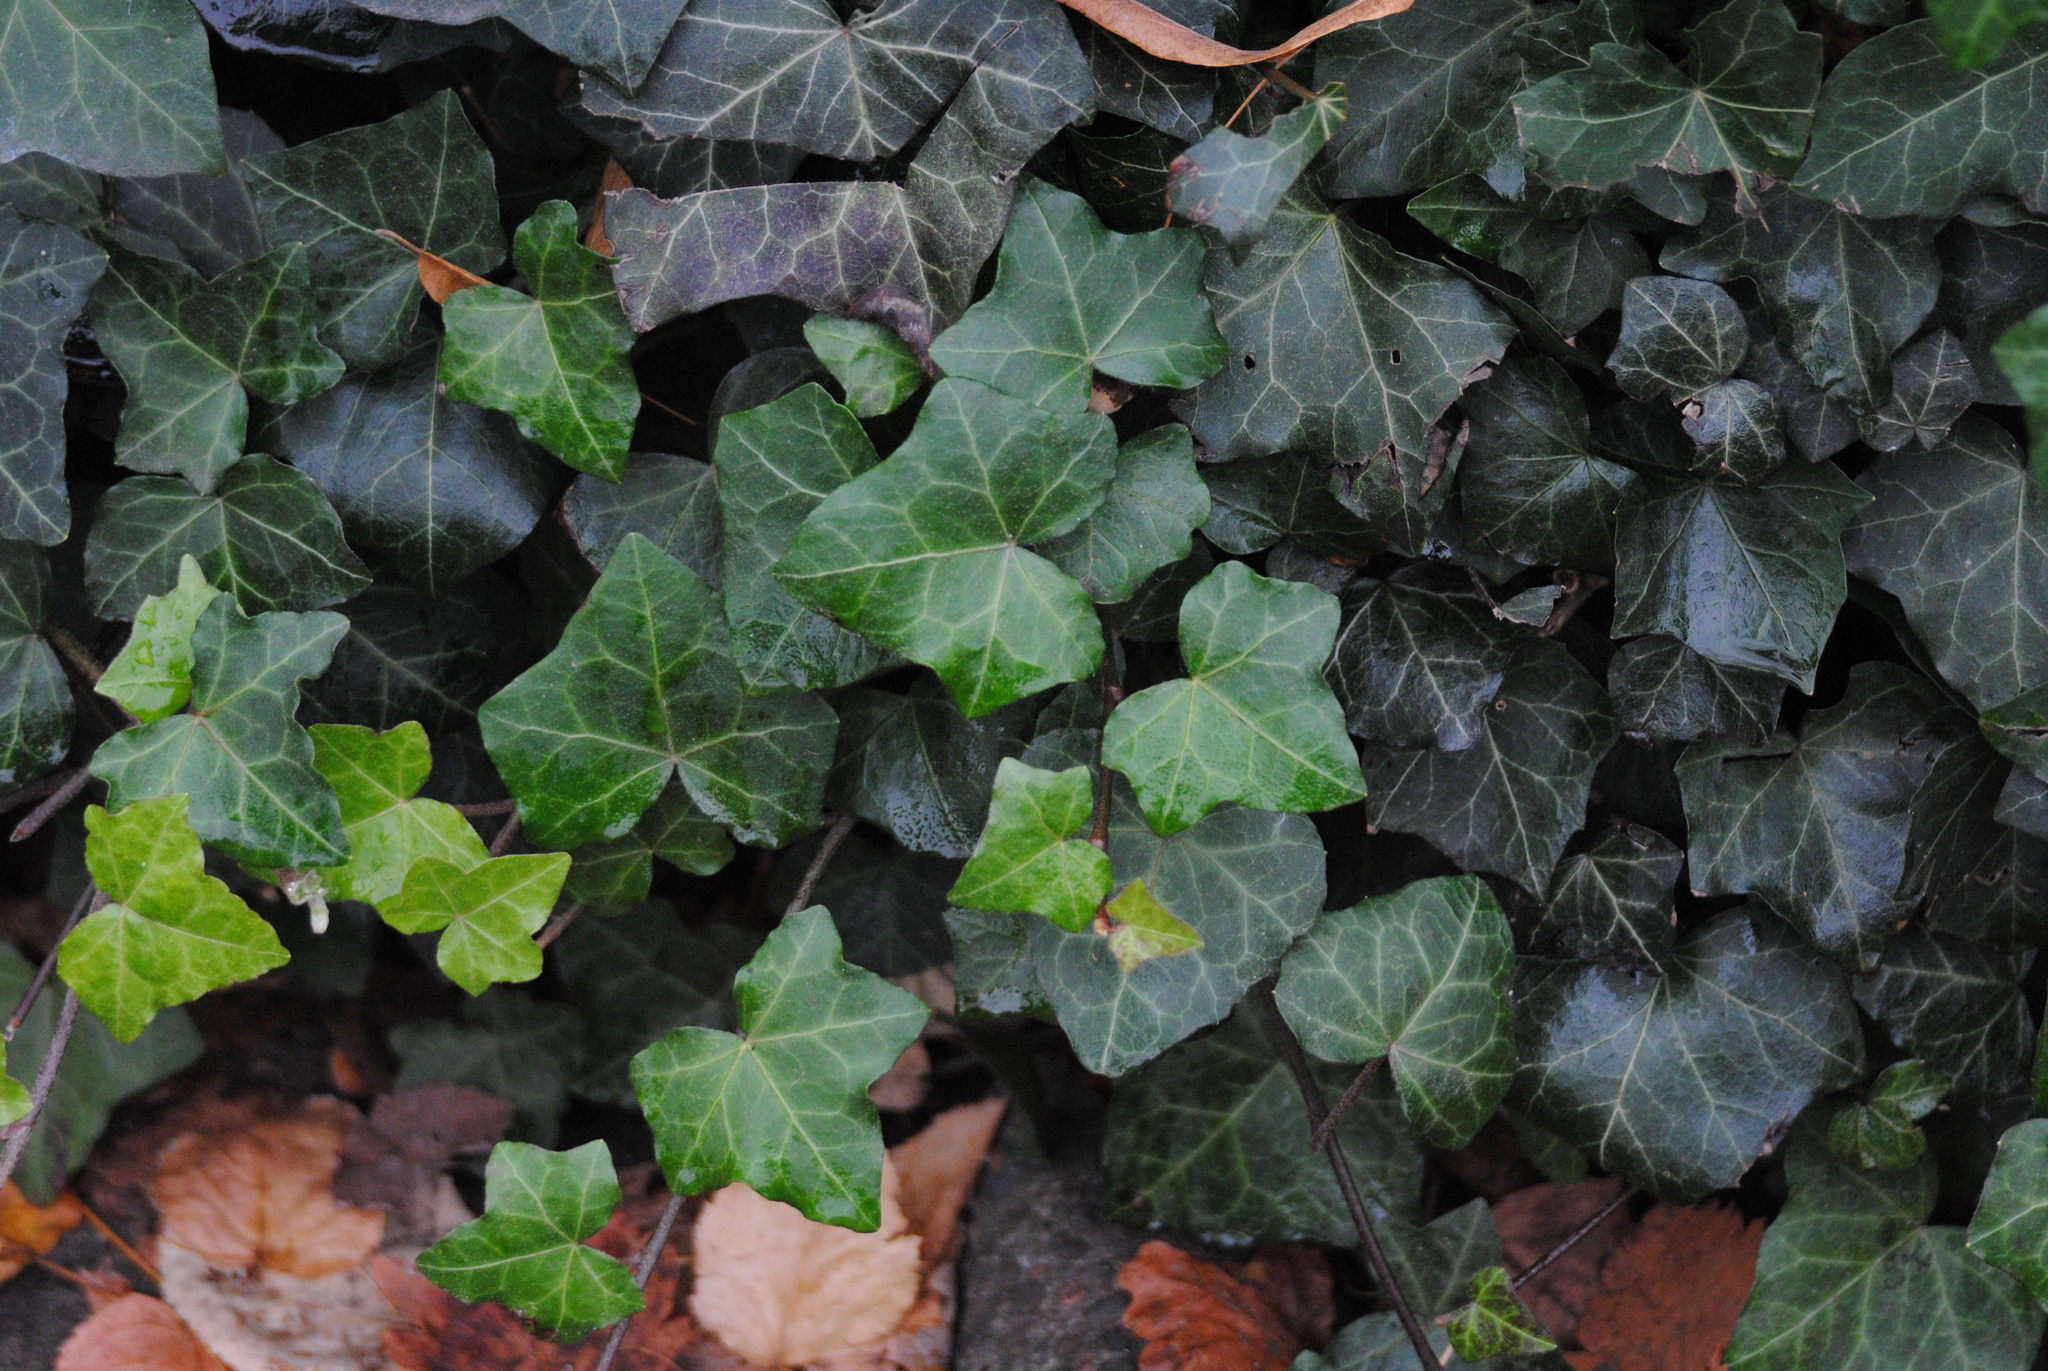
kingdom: Plantae
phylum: Tracheophyta
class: Magnoliopsida
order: Apiales
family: Araliaceae
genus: Hedera
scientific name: Hedera helix
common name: Ivy
